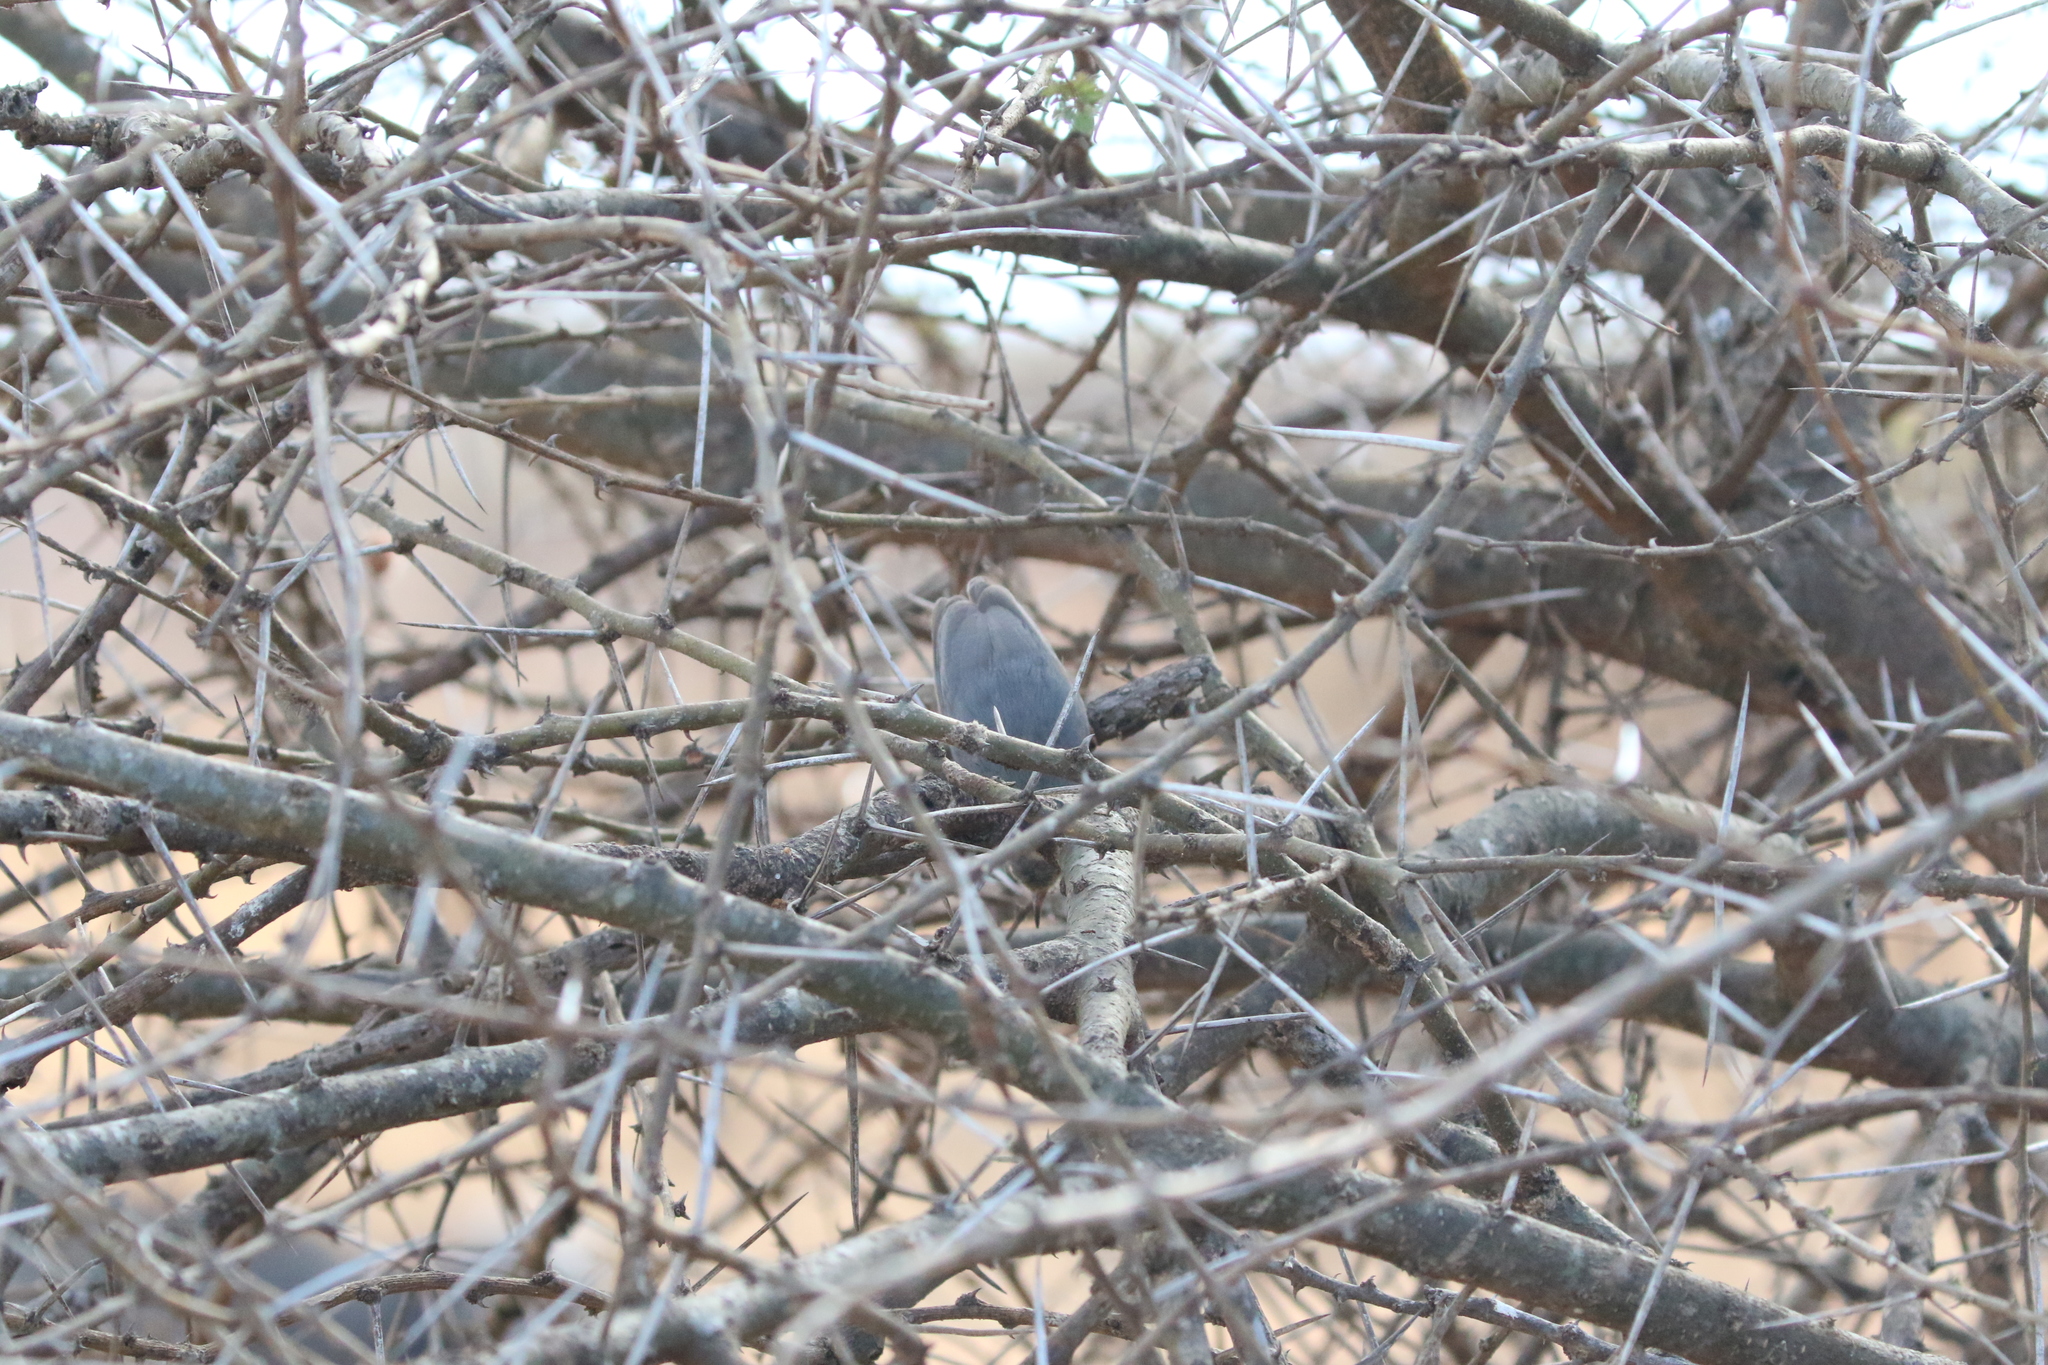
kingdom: Animalia
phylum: Chordata
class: Aves
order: Passeriformes
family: Macrosphenidae
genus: Sylvietta
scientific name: Sylvietta whytii
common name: Red-faced crombec
